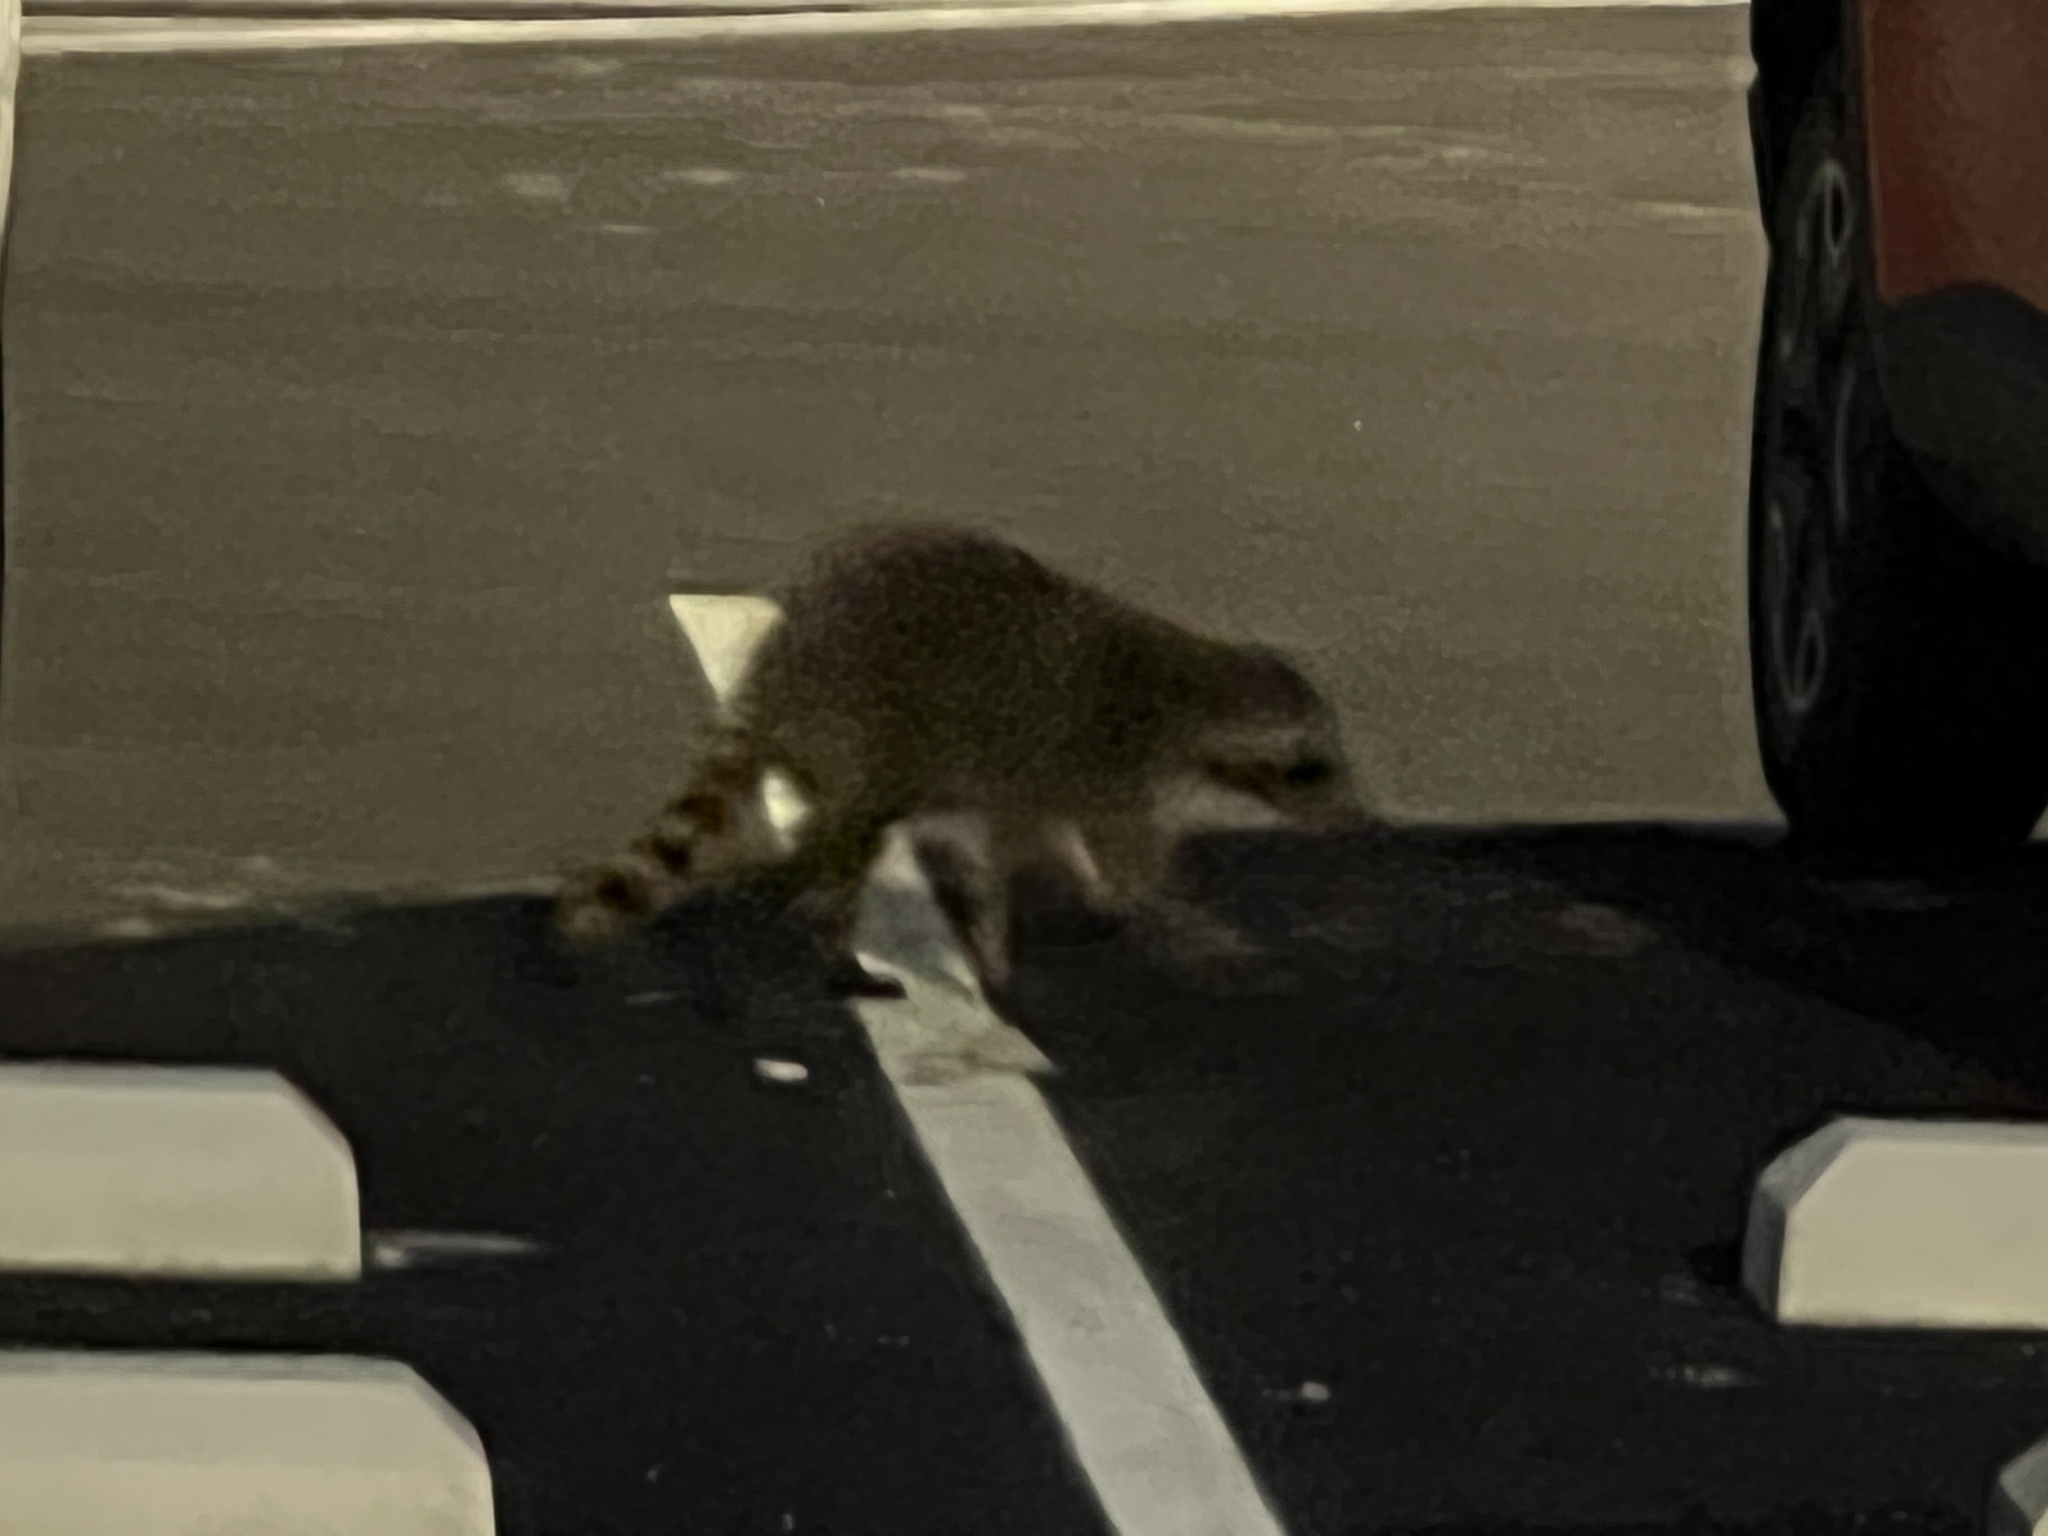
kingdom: Animalia
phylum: Chordata
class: Mammalia
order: Carnivora
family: Procyonidae
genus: Procyon
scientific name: Procyon lotor
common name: Raccoon
